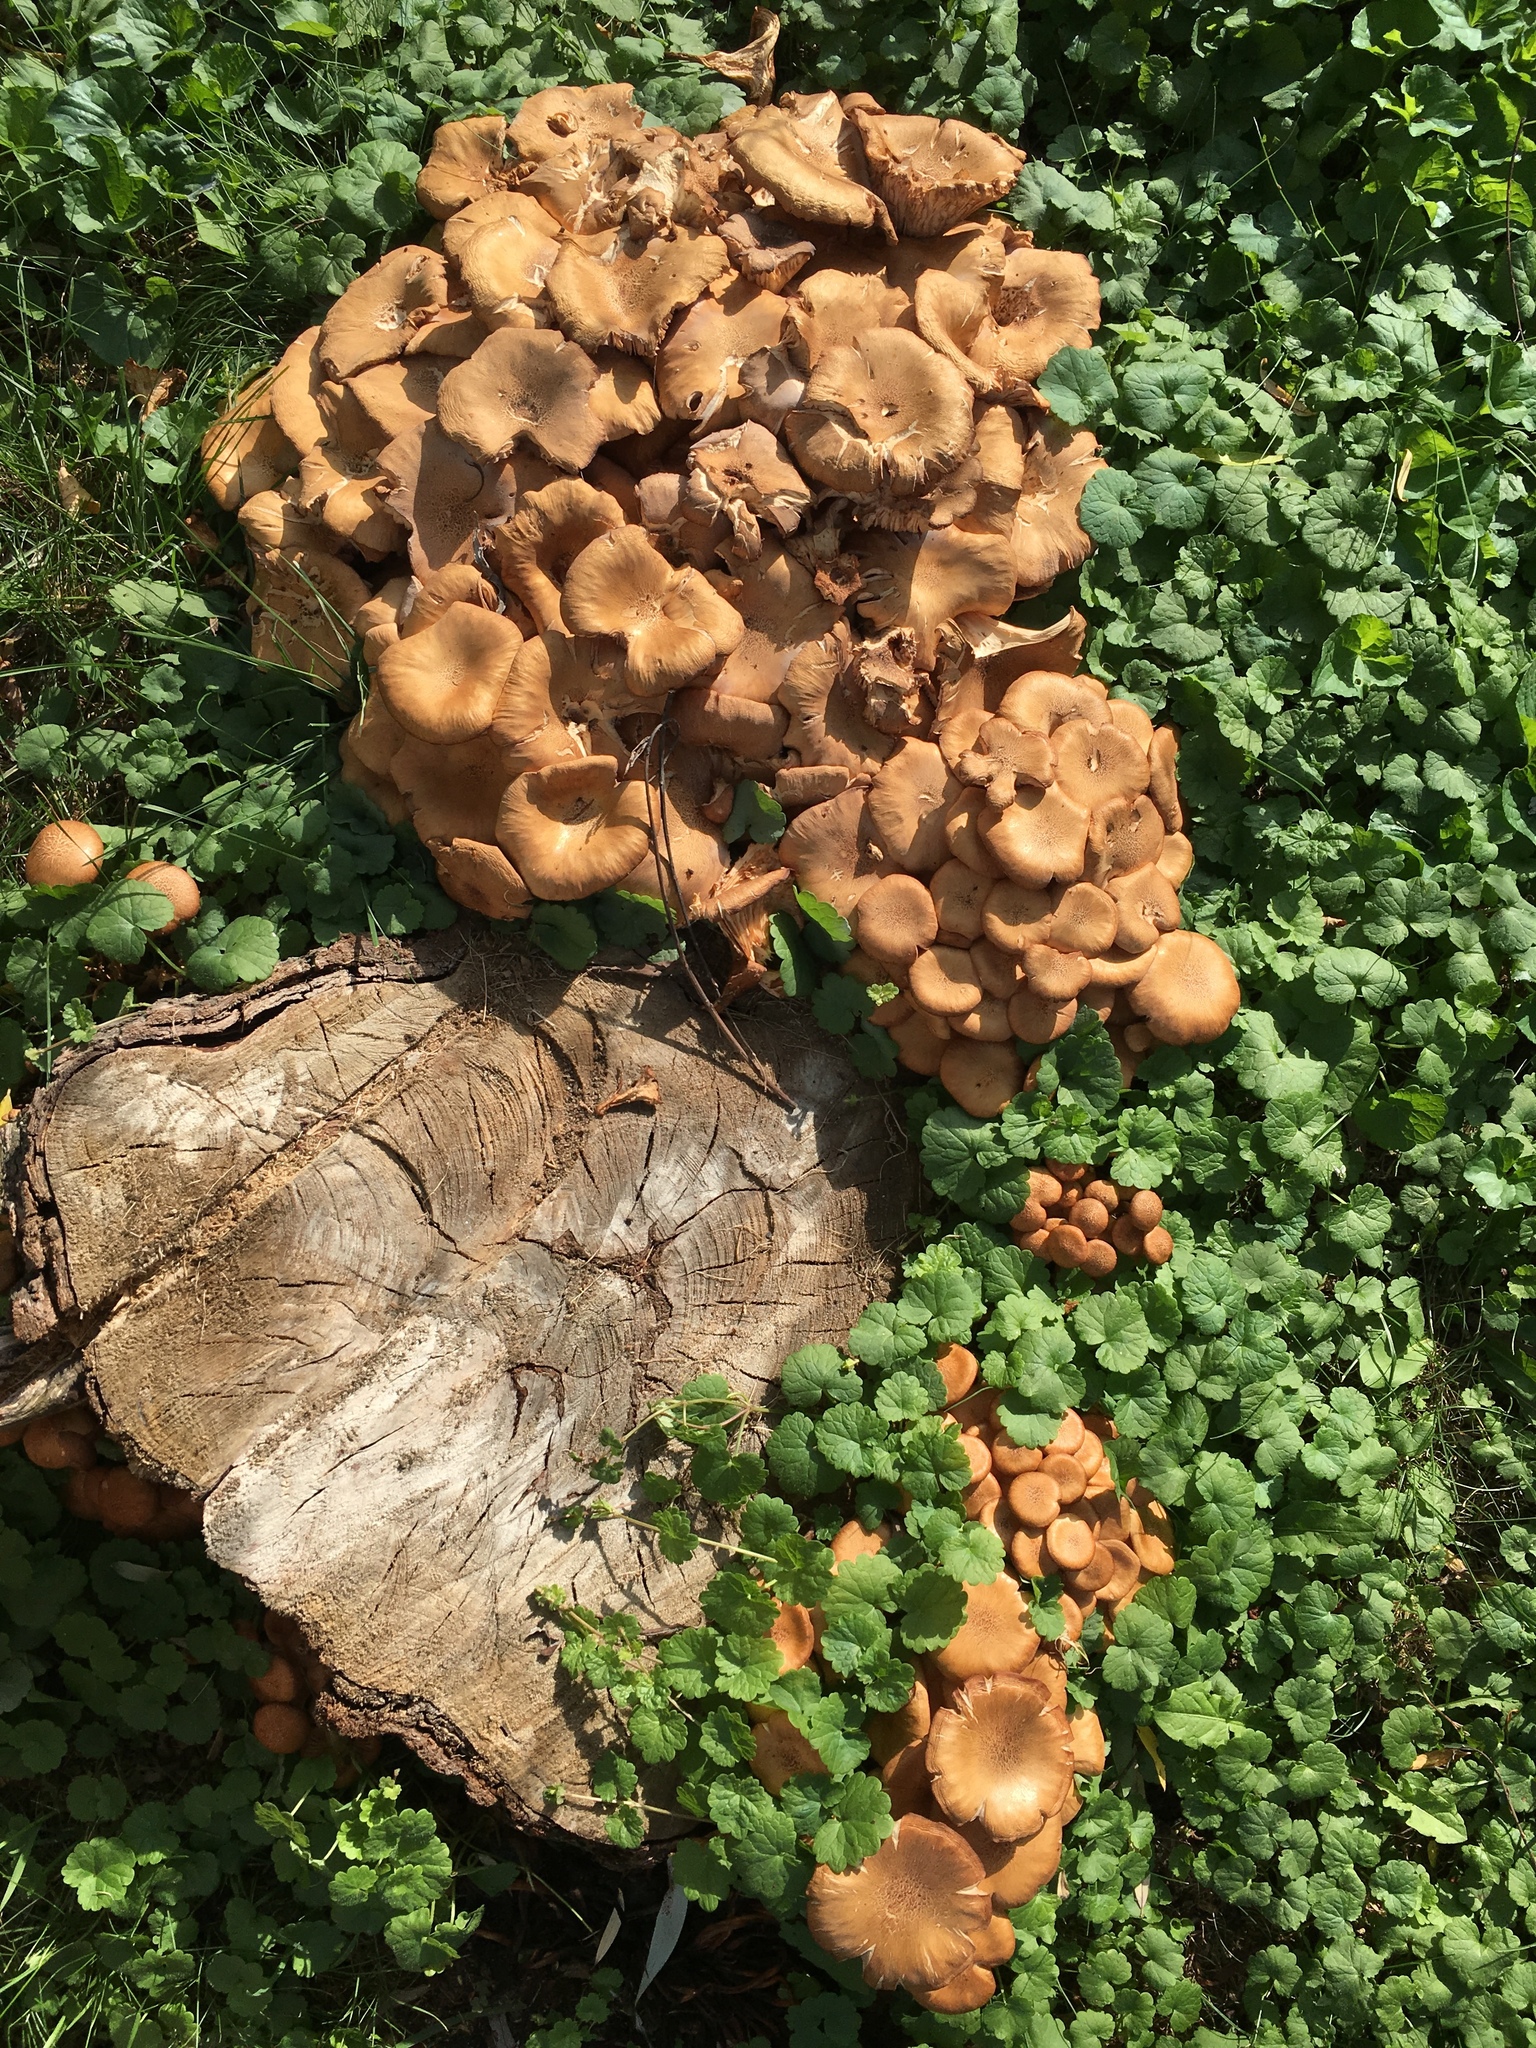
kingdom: Fungi
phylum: Basidiomycota
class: Agaricomycetes
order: Agaricales
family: Physalacriaceae
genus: Desarmillaria
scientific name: Desarmillaria caespitosa
